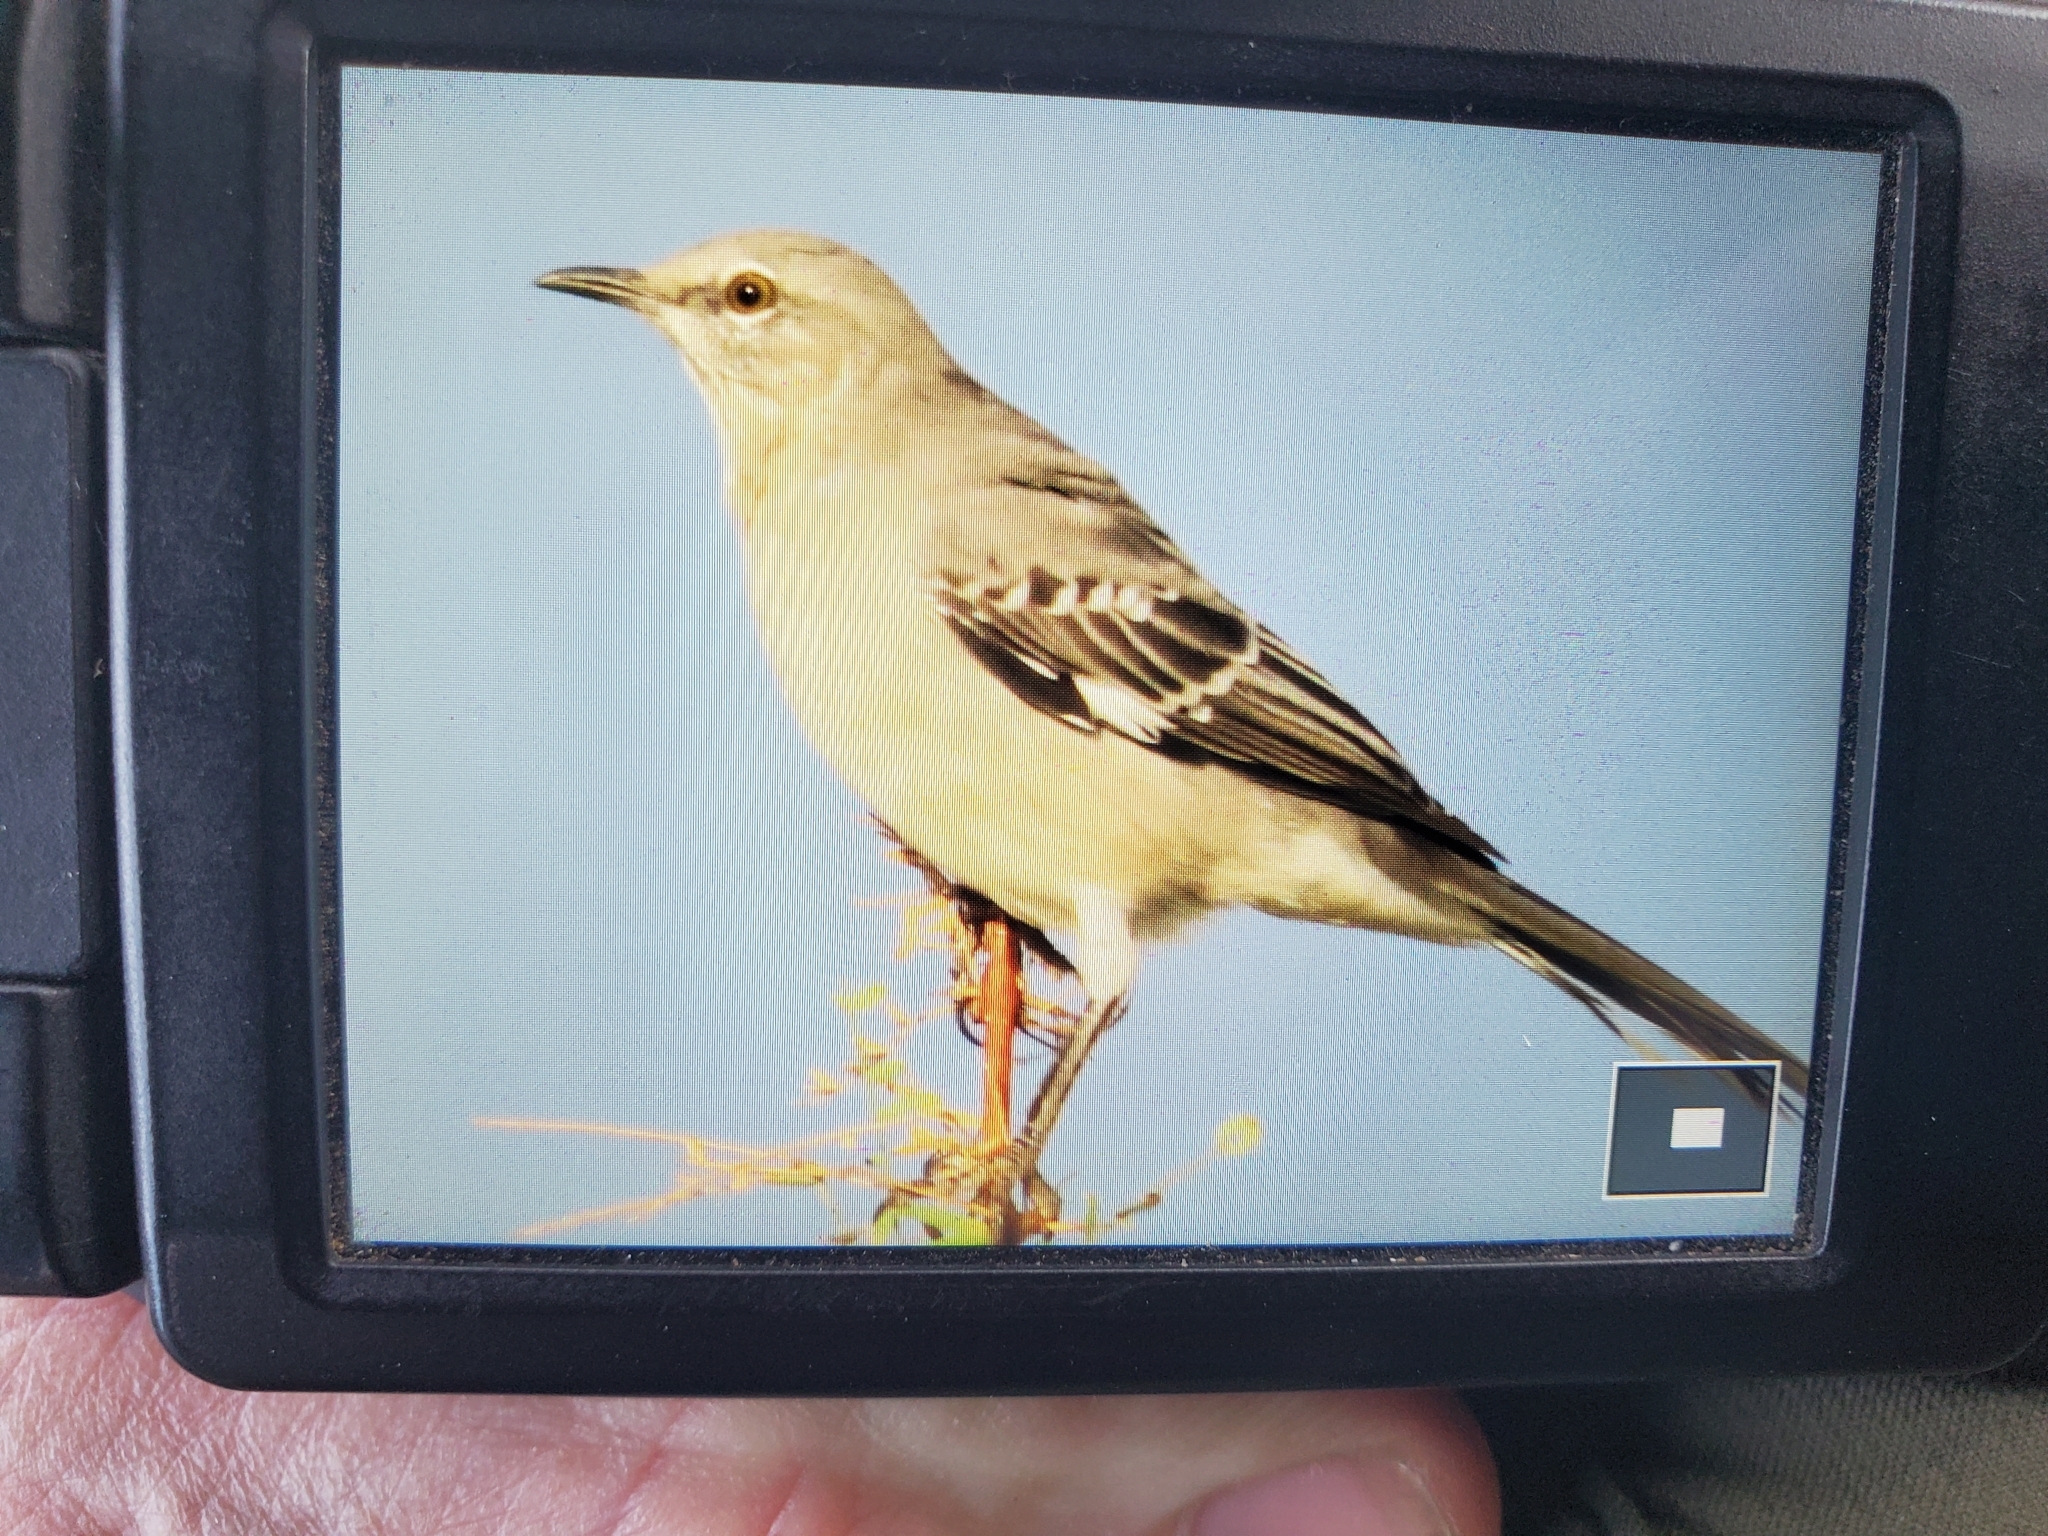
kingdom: Animalia
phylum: Chordata
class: Aves
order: Passeriformes
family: Mimidae
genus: Mimus
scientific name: Mimus polyglottos
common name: Northern mockingbird
